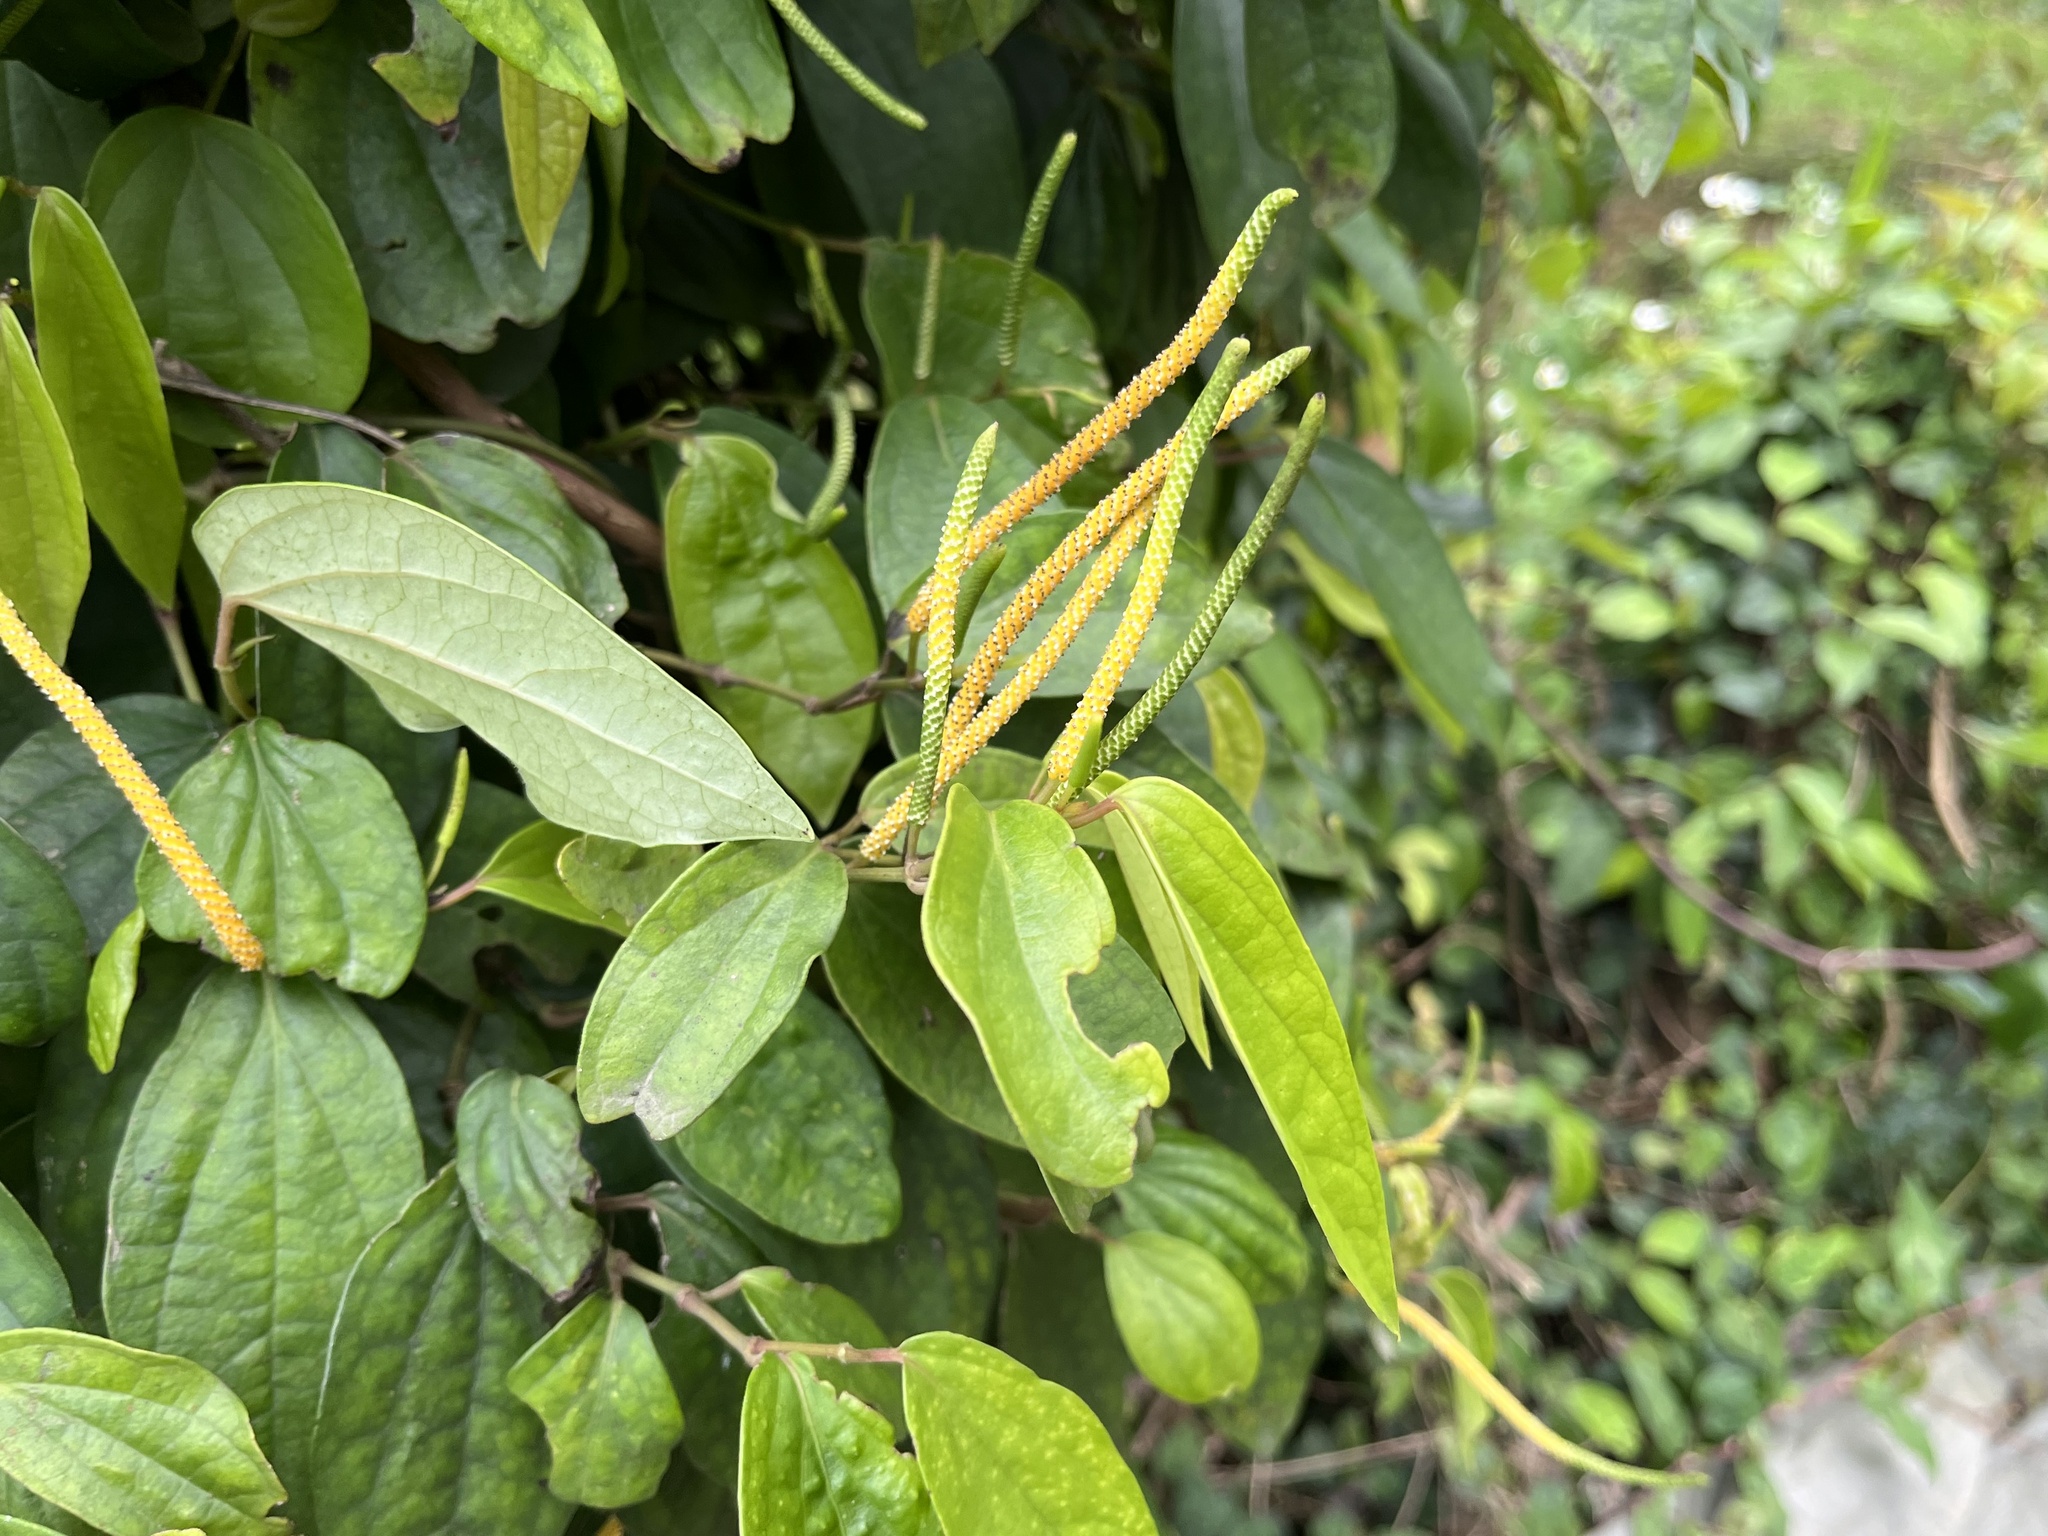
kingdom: Plantae
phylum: Tracheophyta
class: Magnoliopsida
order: Piperales
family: Piperaceae
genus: Piper
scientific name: Piper kadsura
